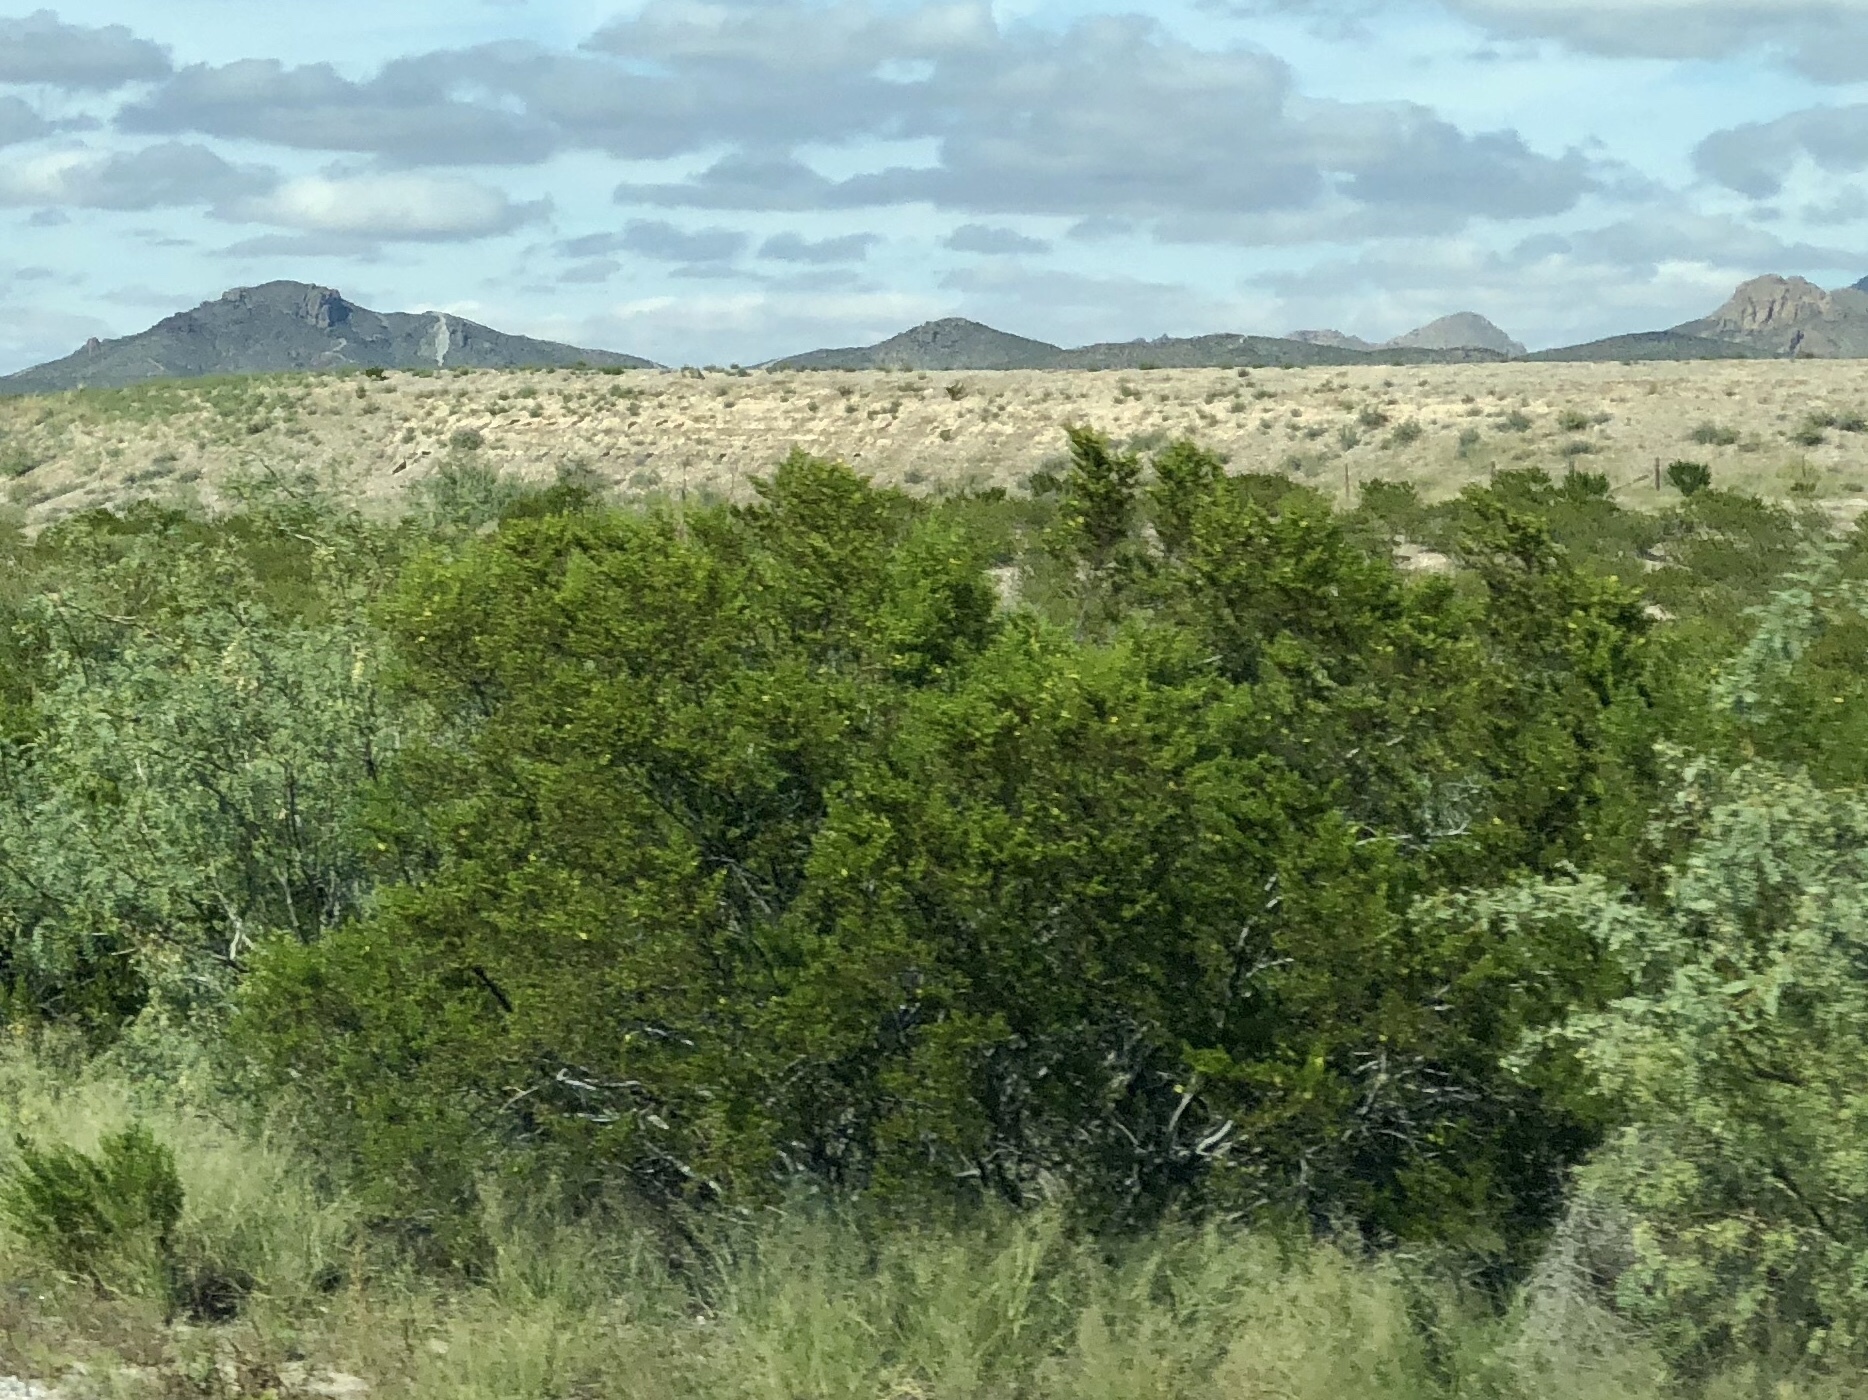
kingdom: Plantae
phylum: Tracheophyta
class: Magnoliopsida
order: Zygophyllales
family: Zygophyllaceae
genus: Larrea
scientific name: Larrea tridentata
